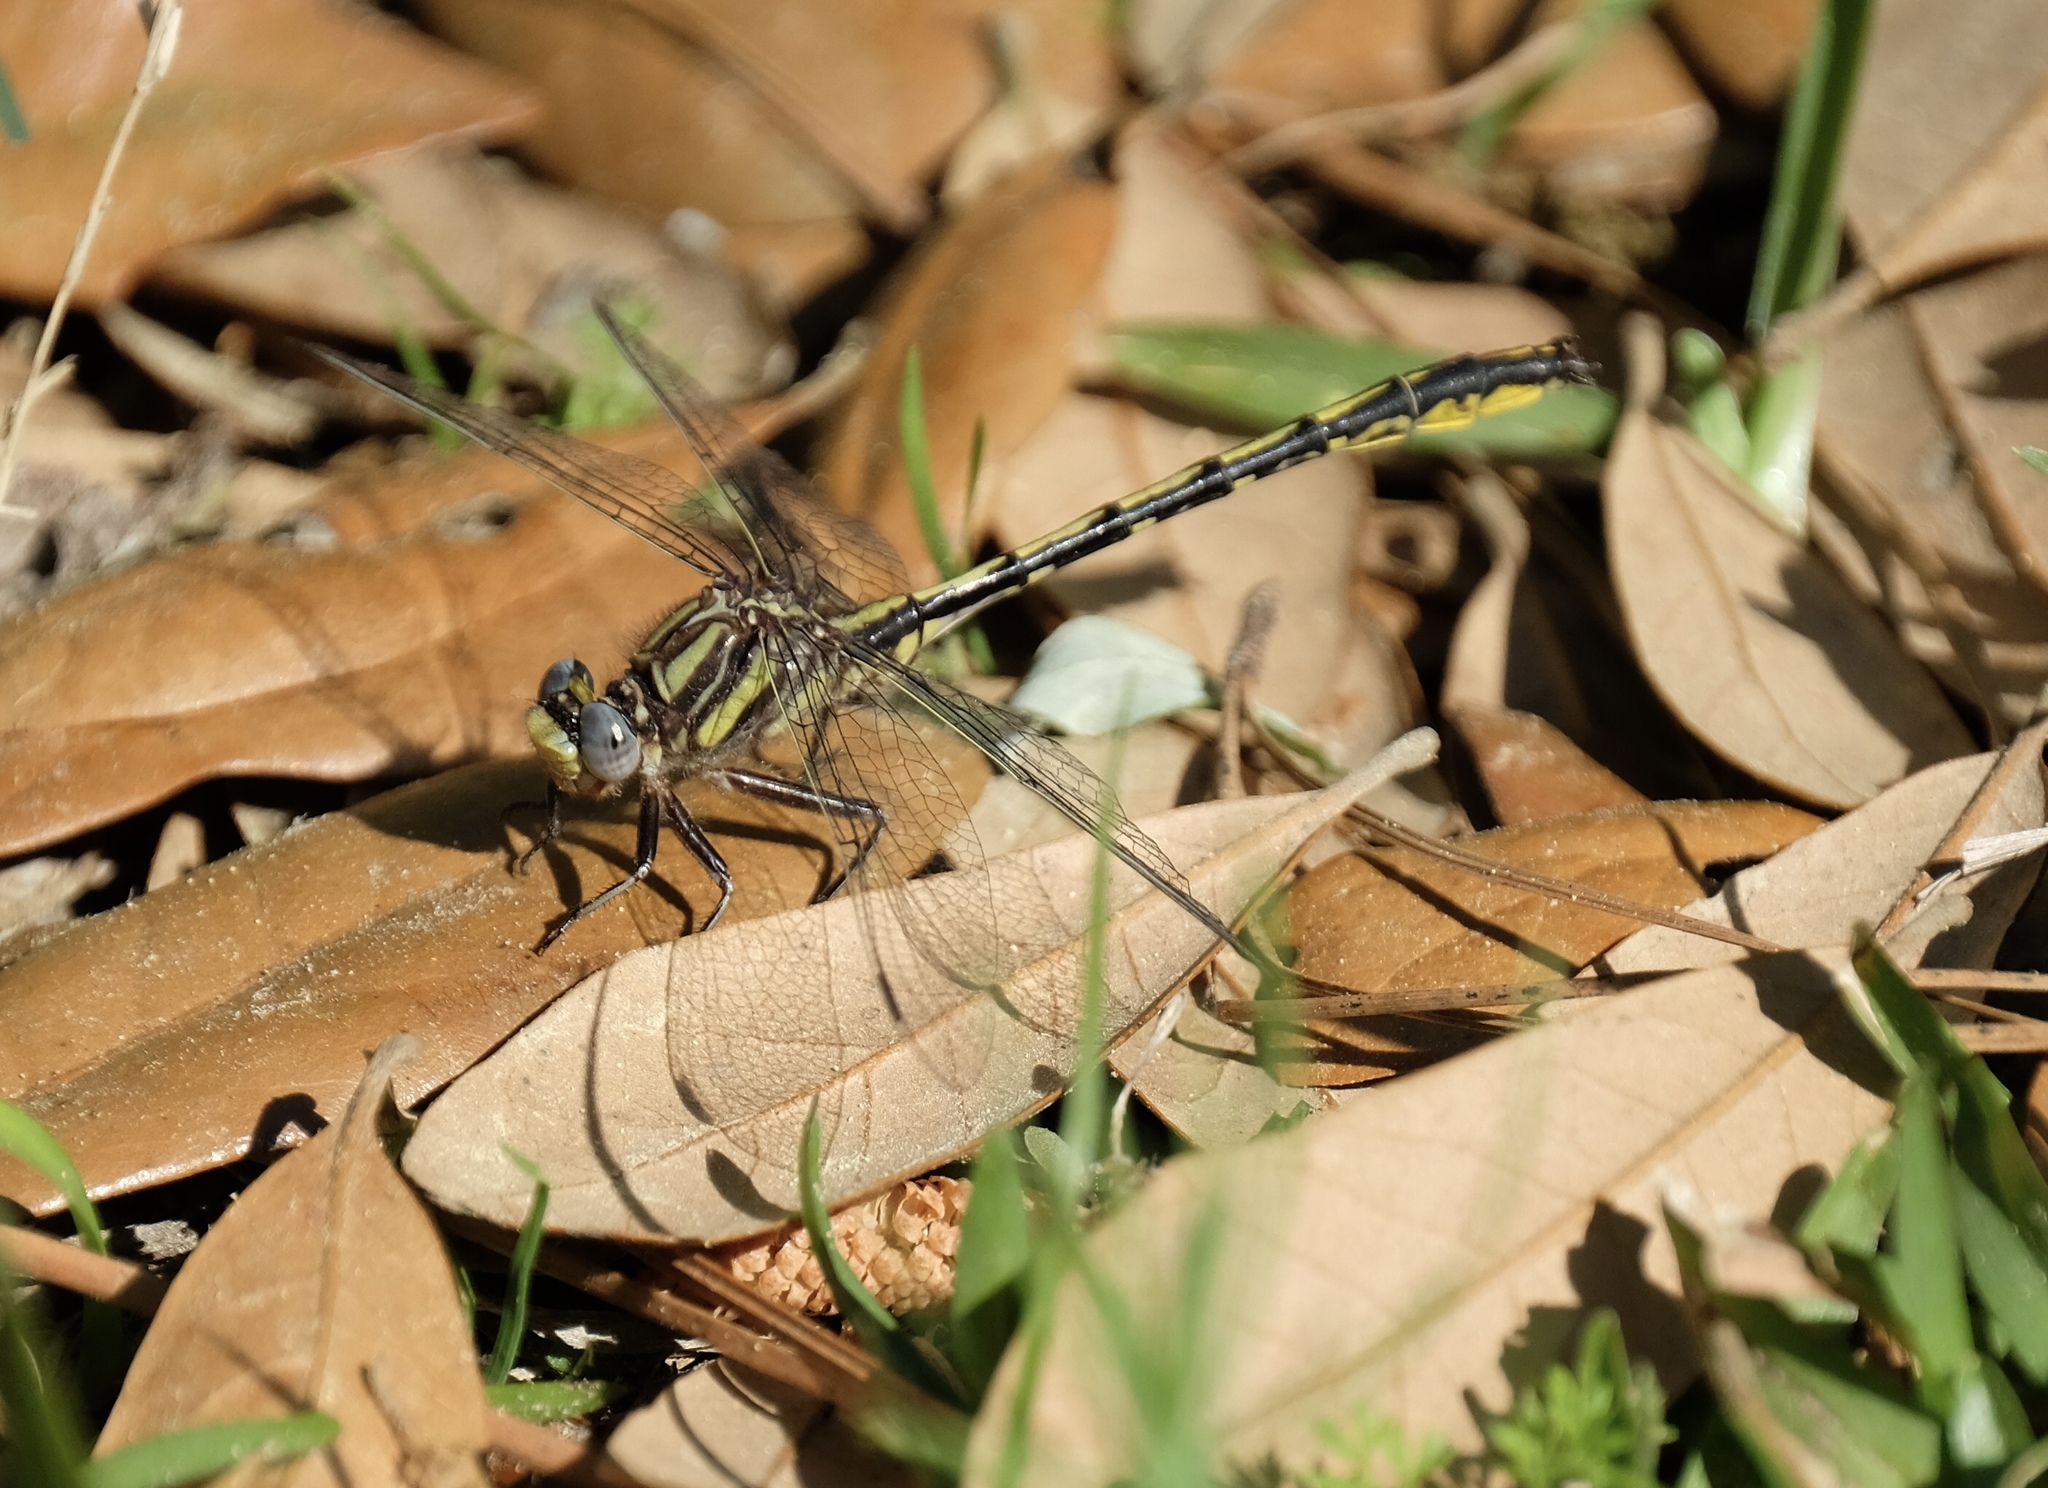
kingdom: Animalia
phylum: Arthropoda
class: Insecta
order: Odonata
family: Gomphidae
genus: Phanogomphus
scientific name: Phanogomphus oklahomensis
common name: Oklahoma clubtail
